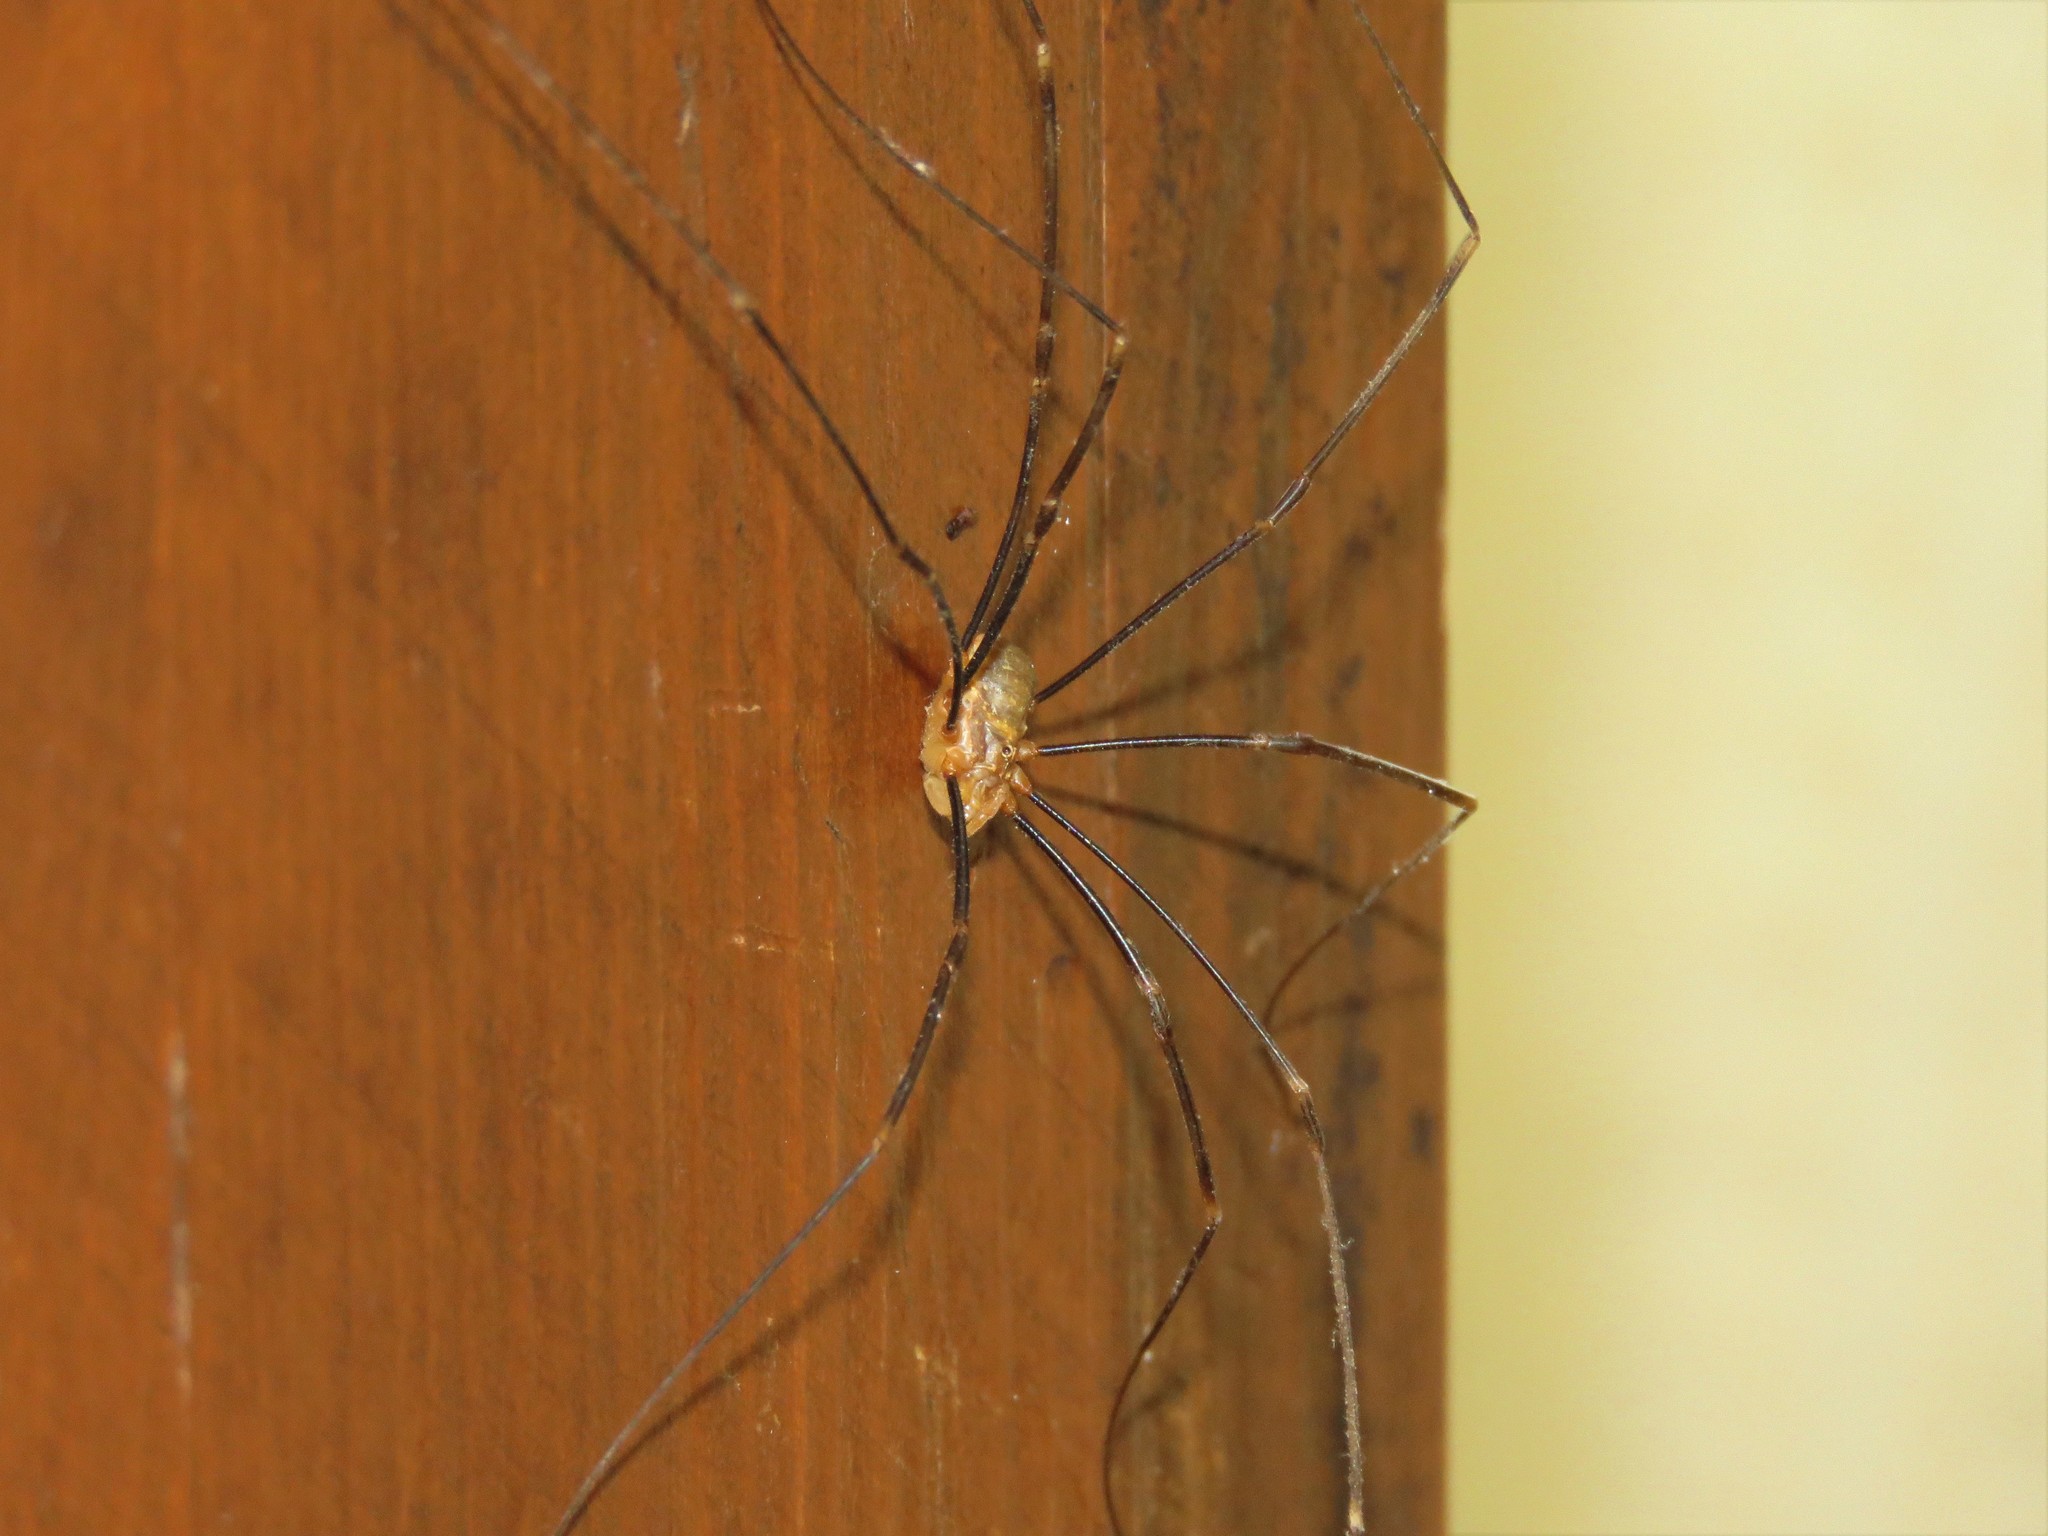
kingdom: Animalia
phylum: Arthropoda
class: Arachnida
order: Opiliones
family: Phalangiidae
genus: Opilio
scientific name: Opilio canestrinii
